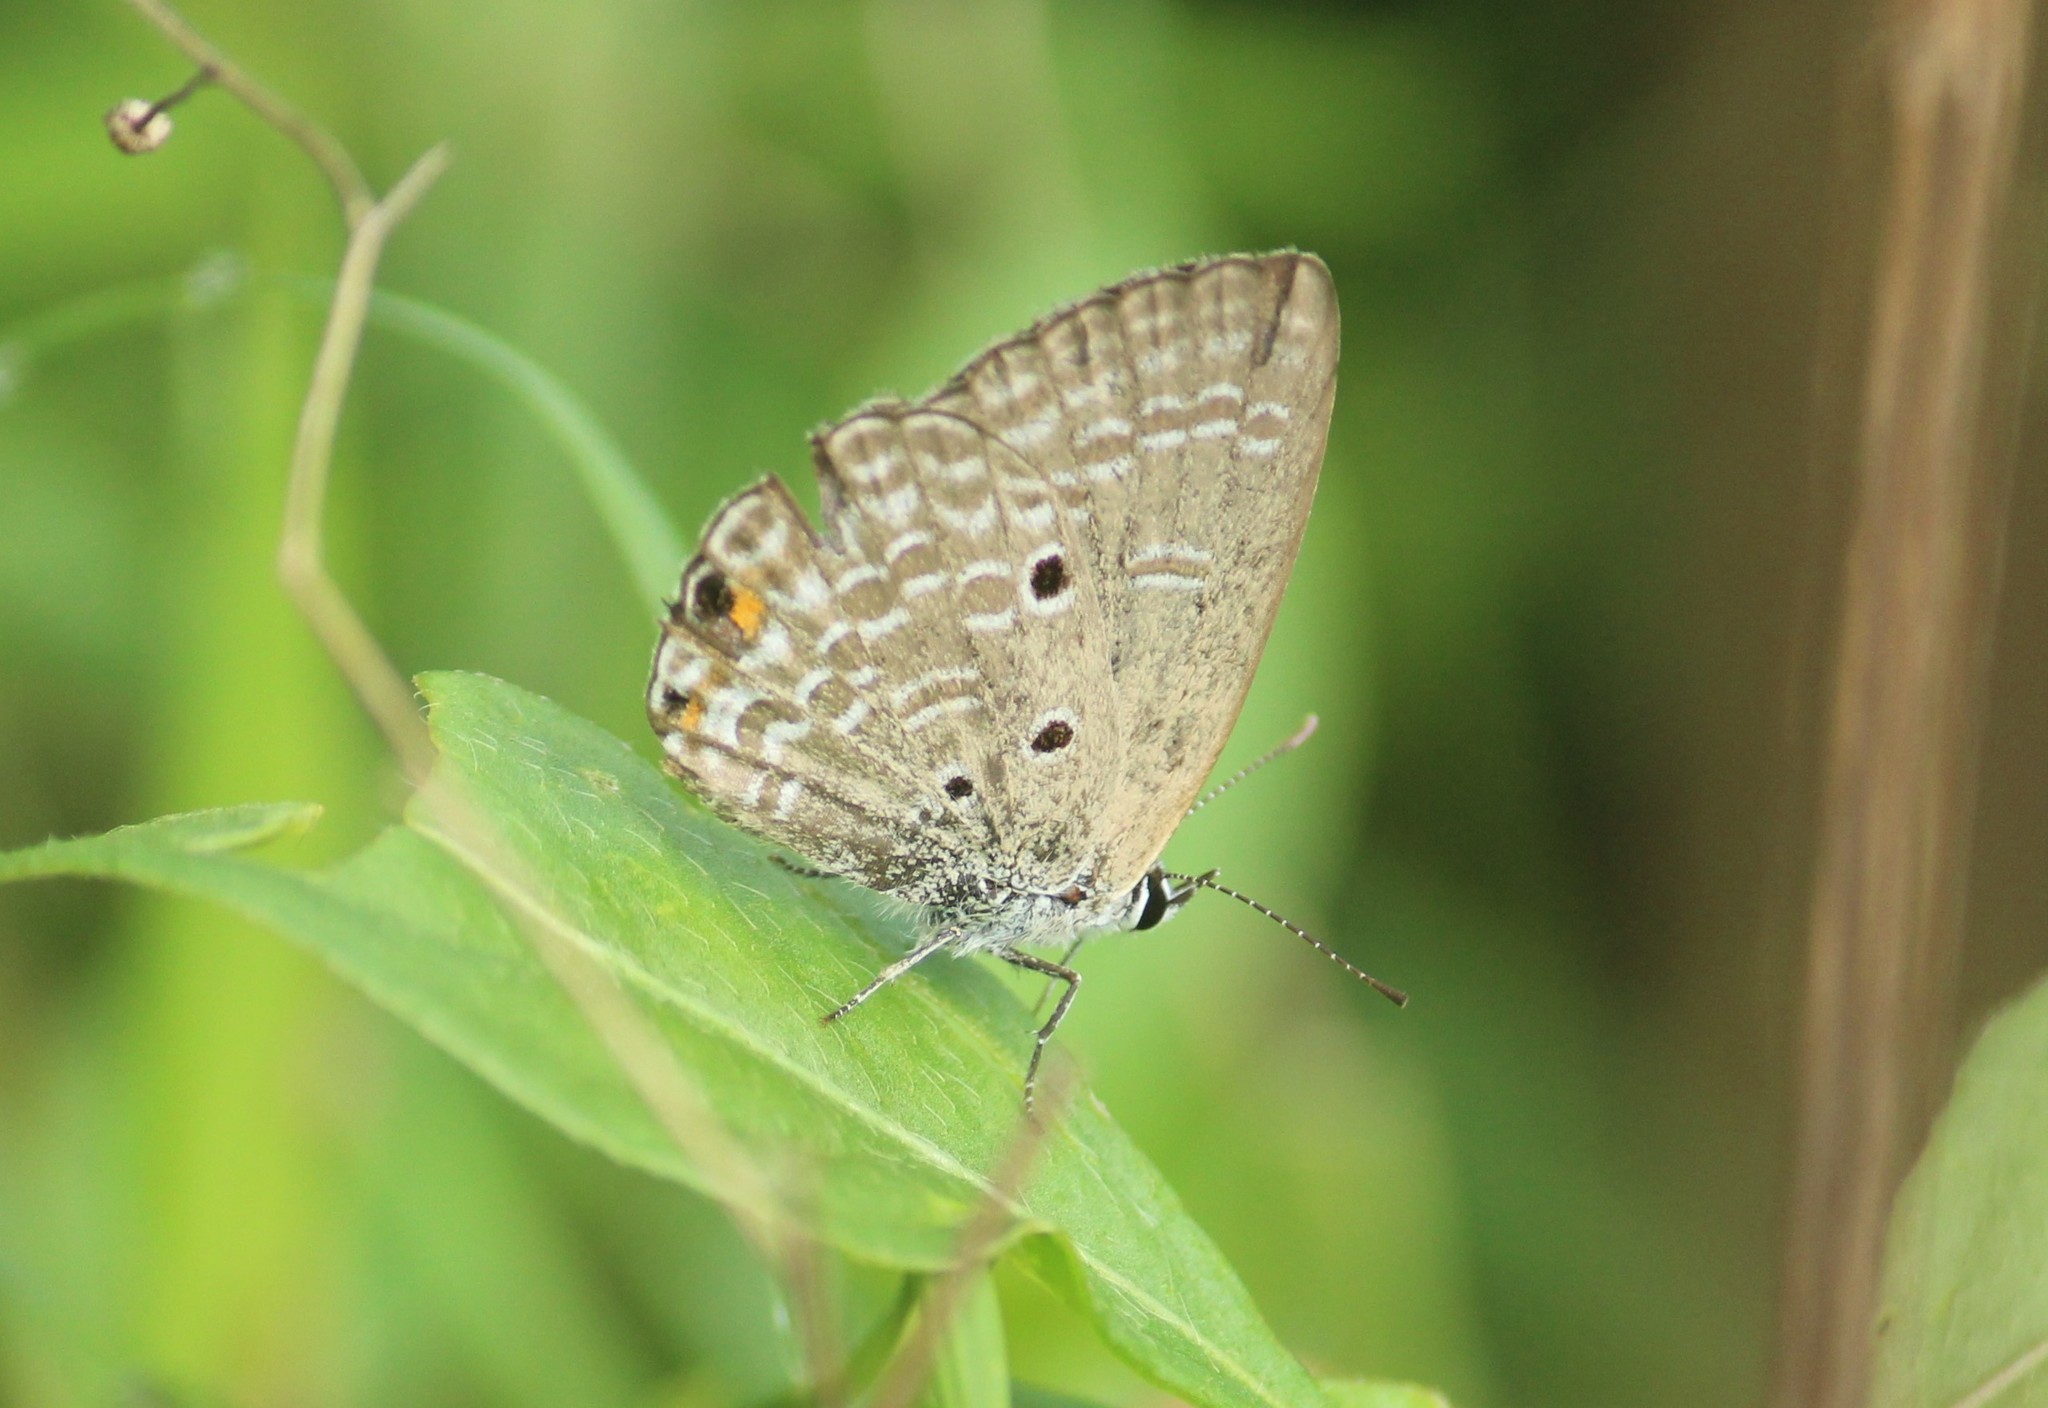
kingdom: Animalia
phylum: Arthropoda
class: Insecta
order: Lepidoptera
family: Lycaenidae
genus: Luthrodes
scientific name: Luthrodes pandava
